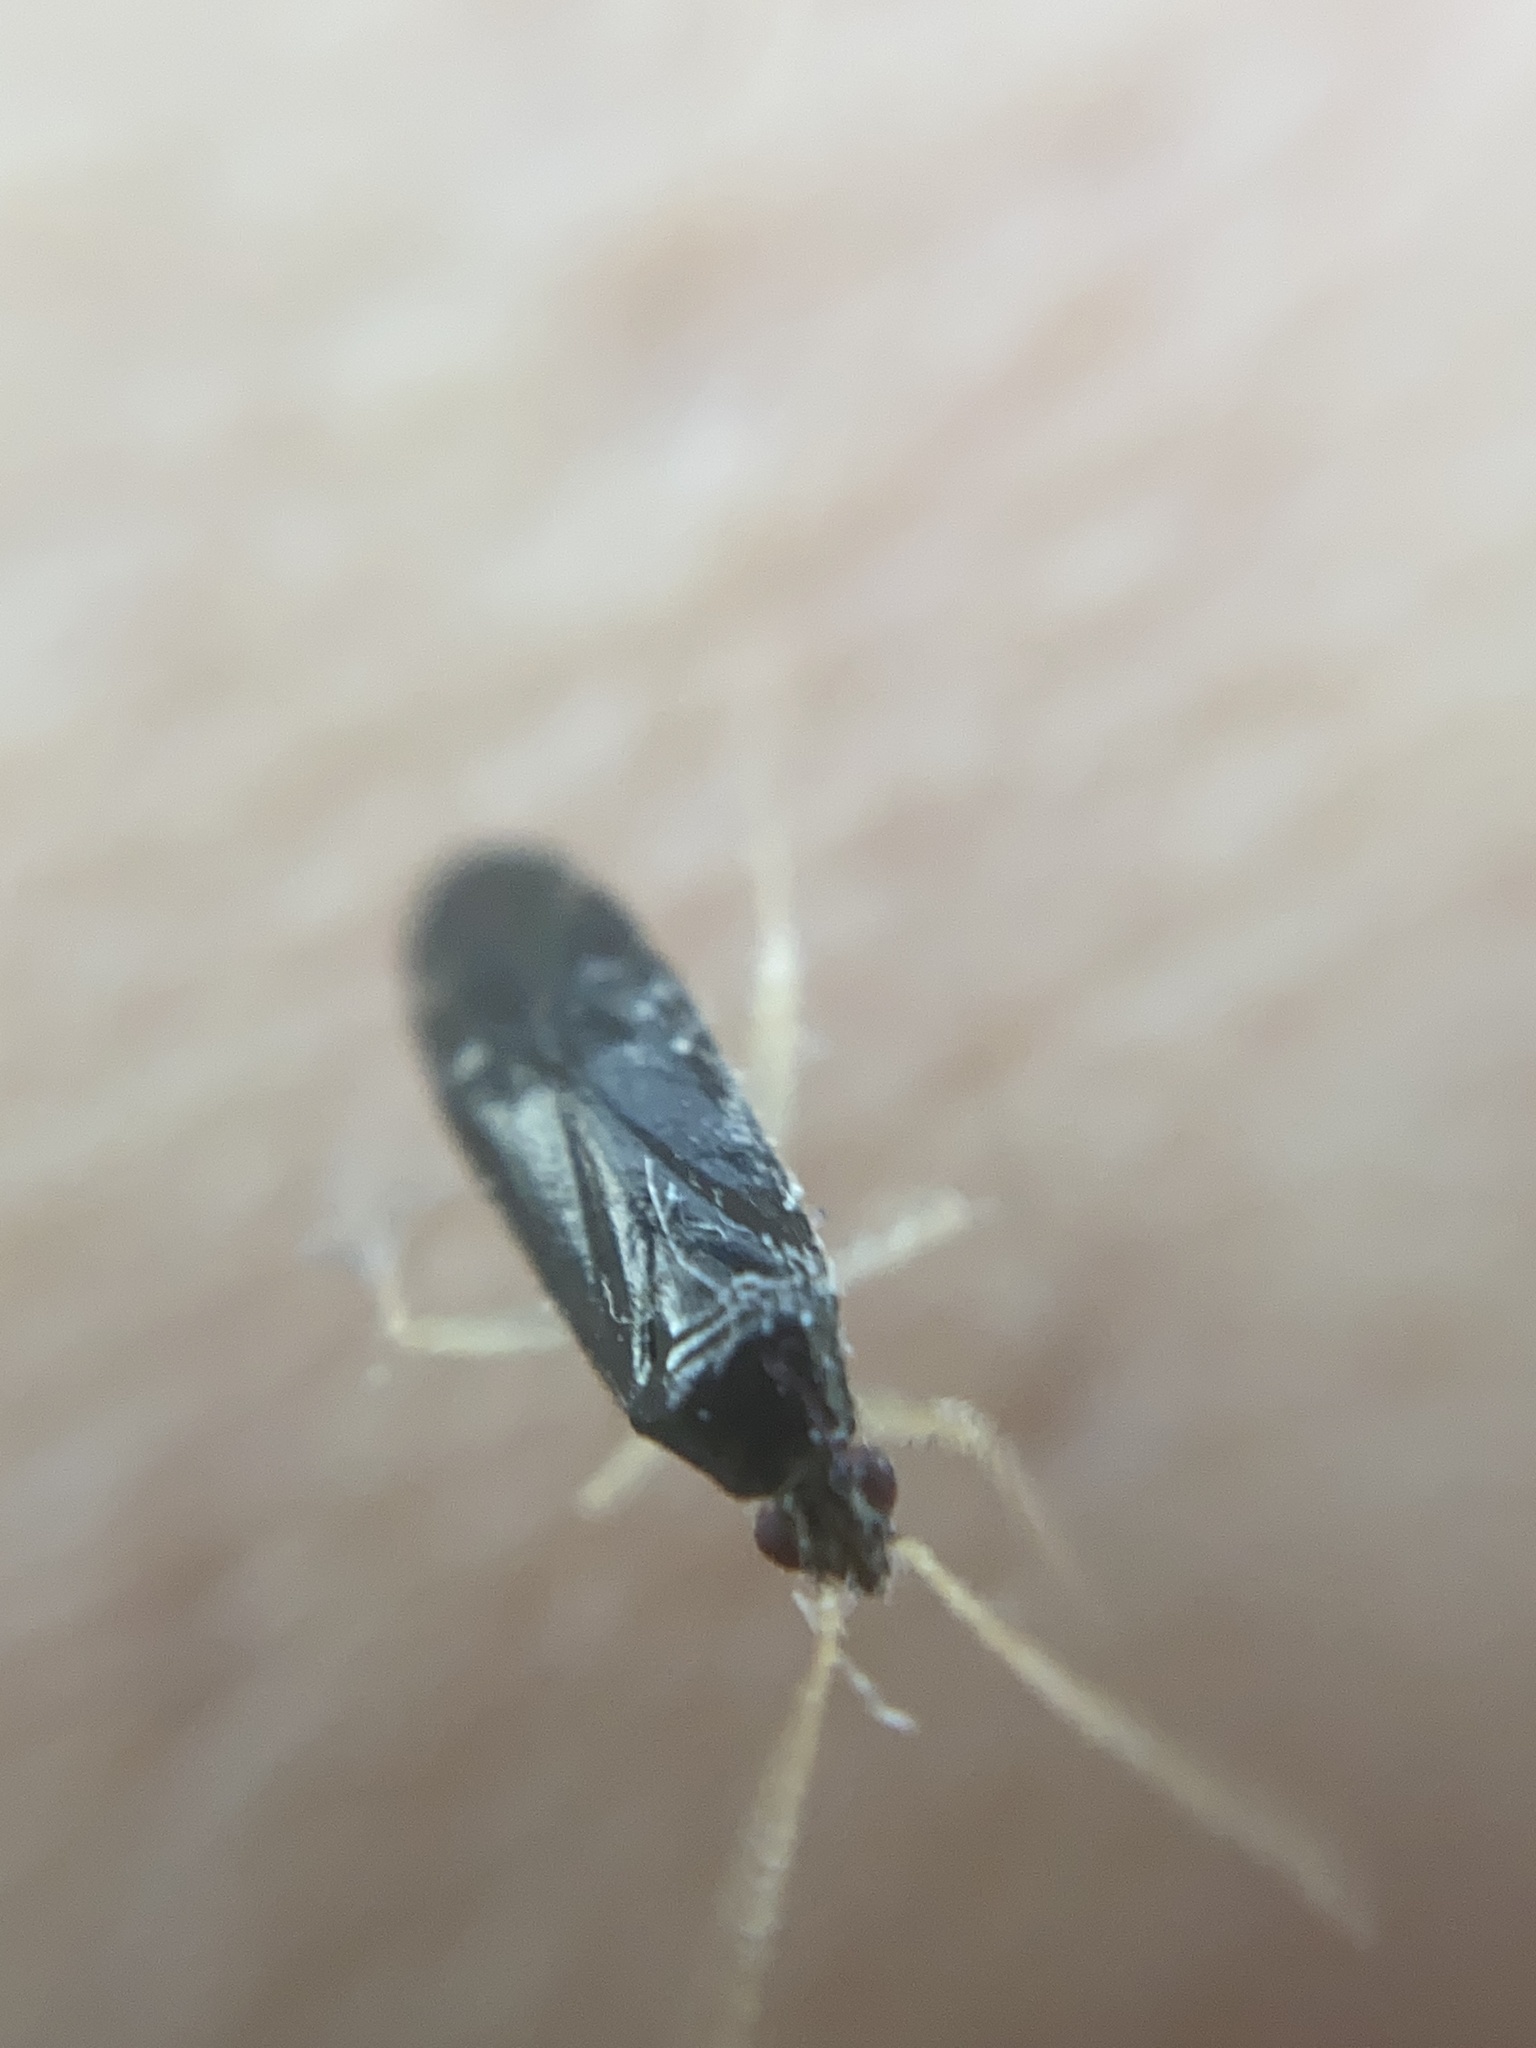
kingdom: Animalia
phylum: Arthropoda
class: Insecta
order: Hemiptera
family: Miridae
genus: Phylus
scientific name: Phylus coryli
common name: Plant bug
